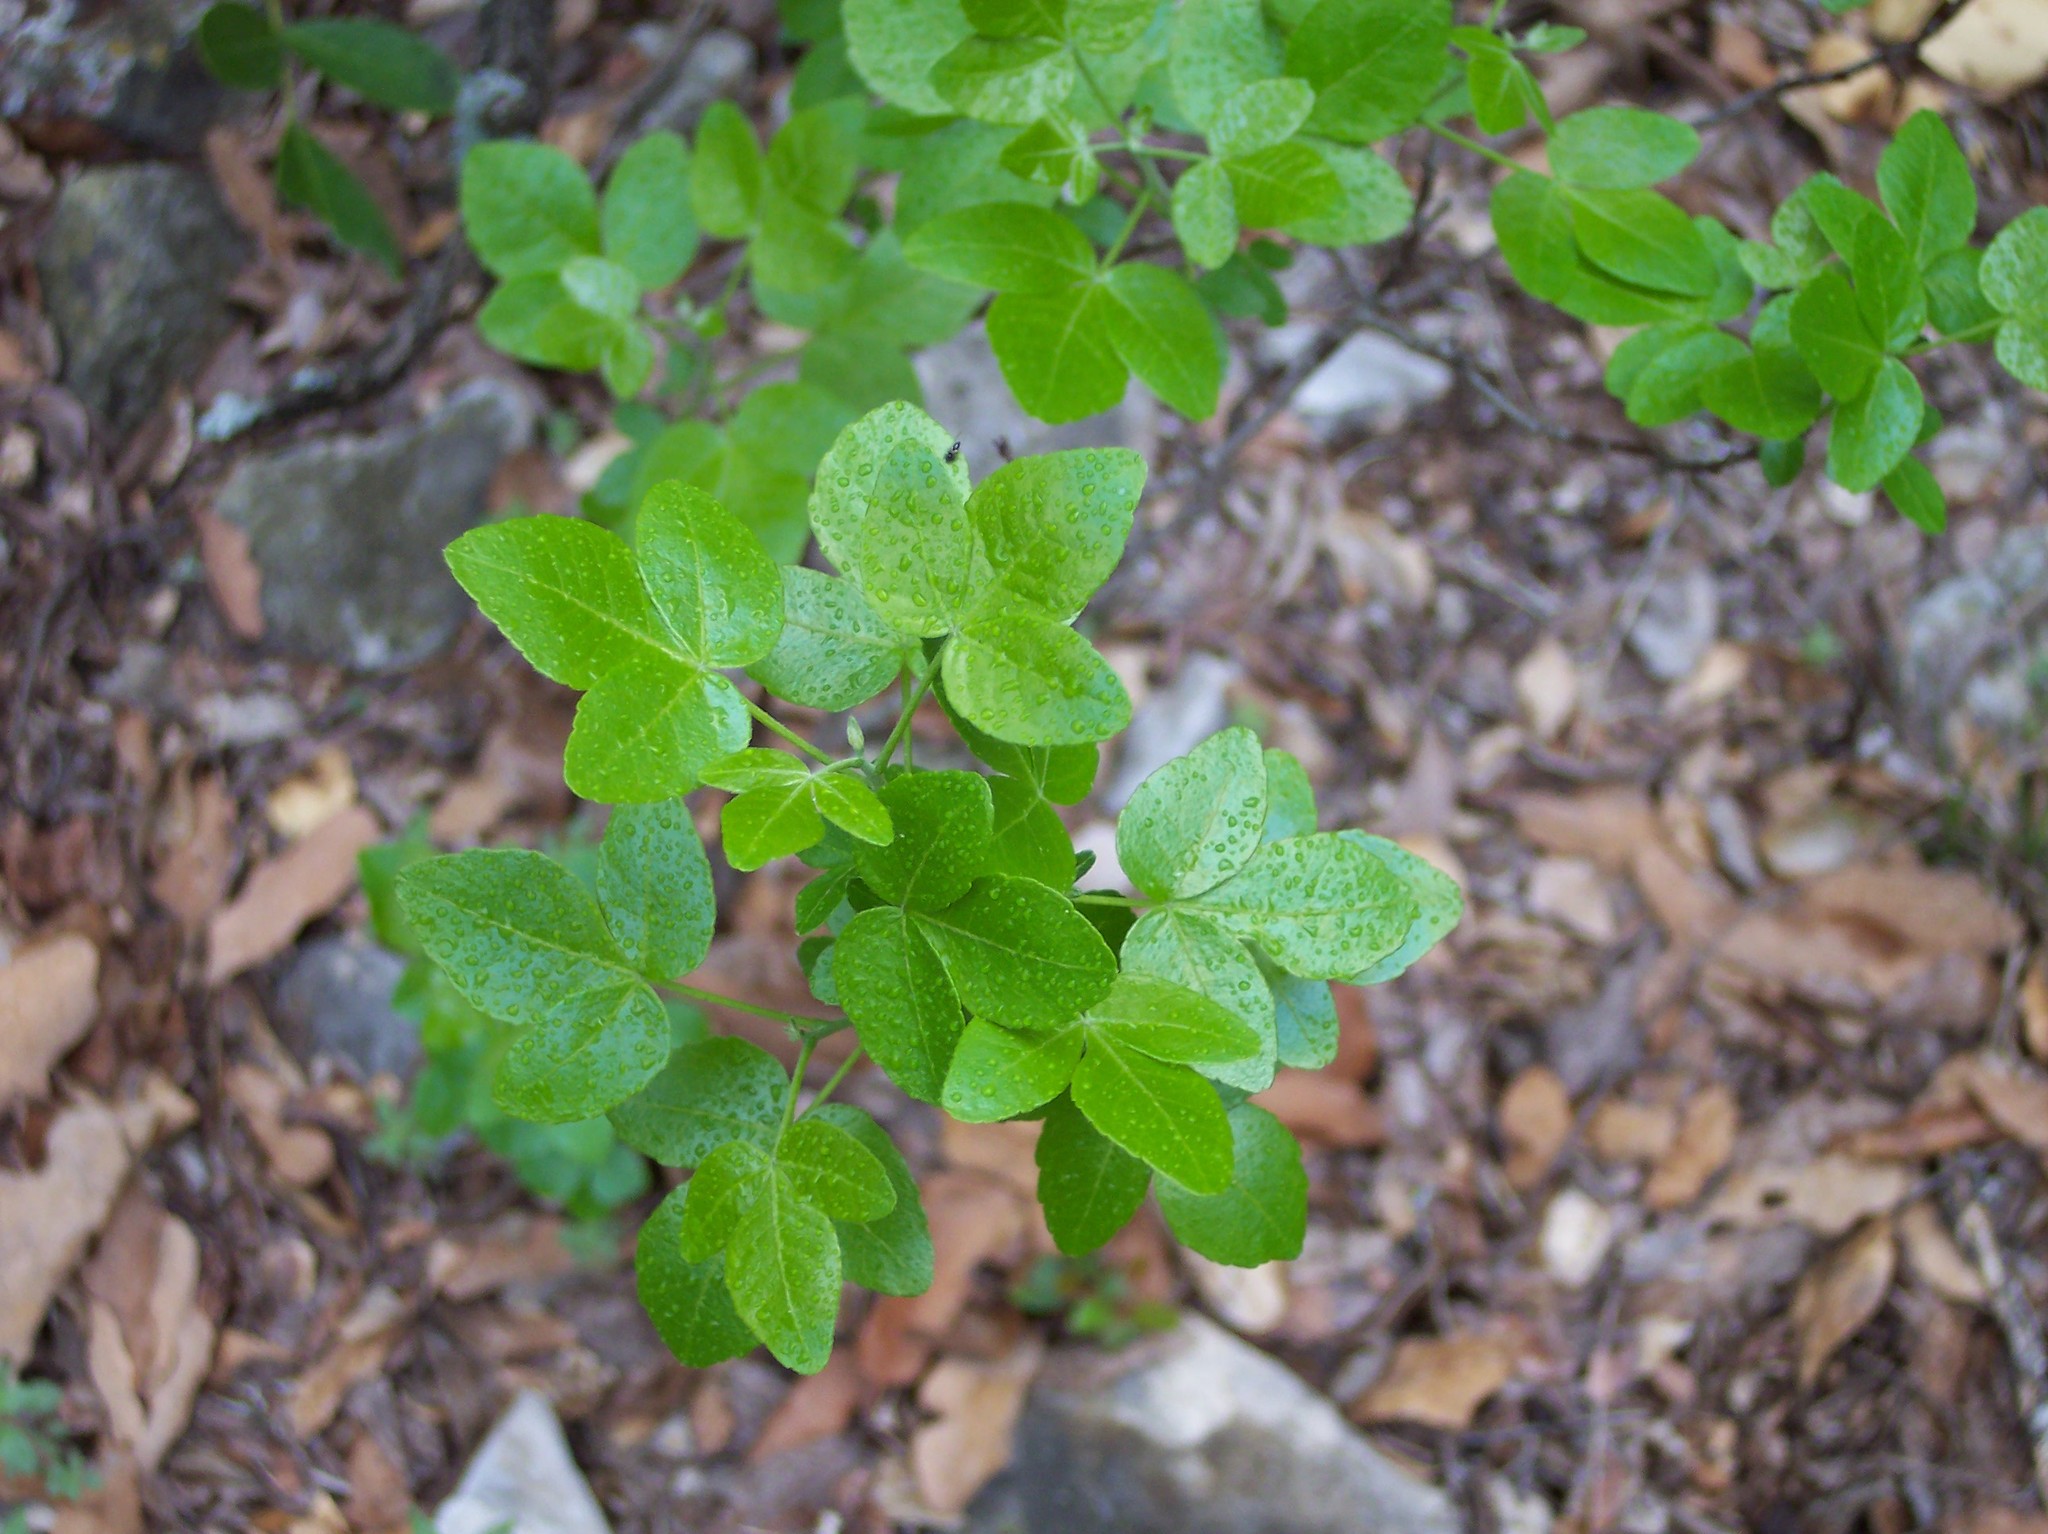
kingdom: Plantae
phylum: Tracheophyta
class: Magnoliopsida
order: Sapindales
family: Rutaceae
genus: Ptelea
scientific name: Ptelea trifoliata
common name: Common hop-tree
